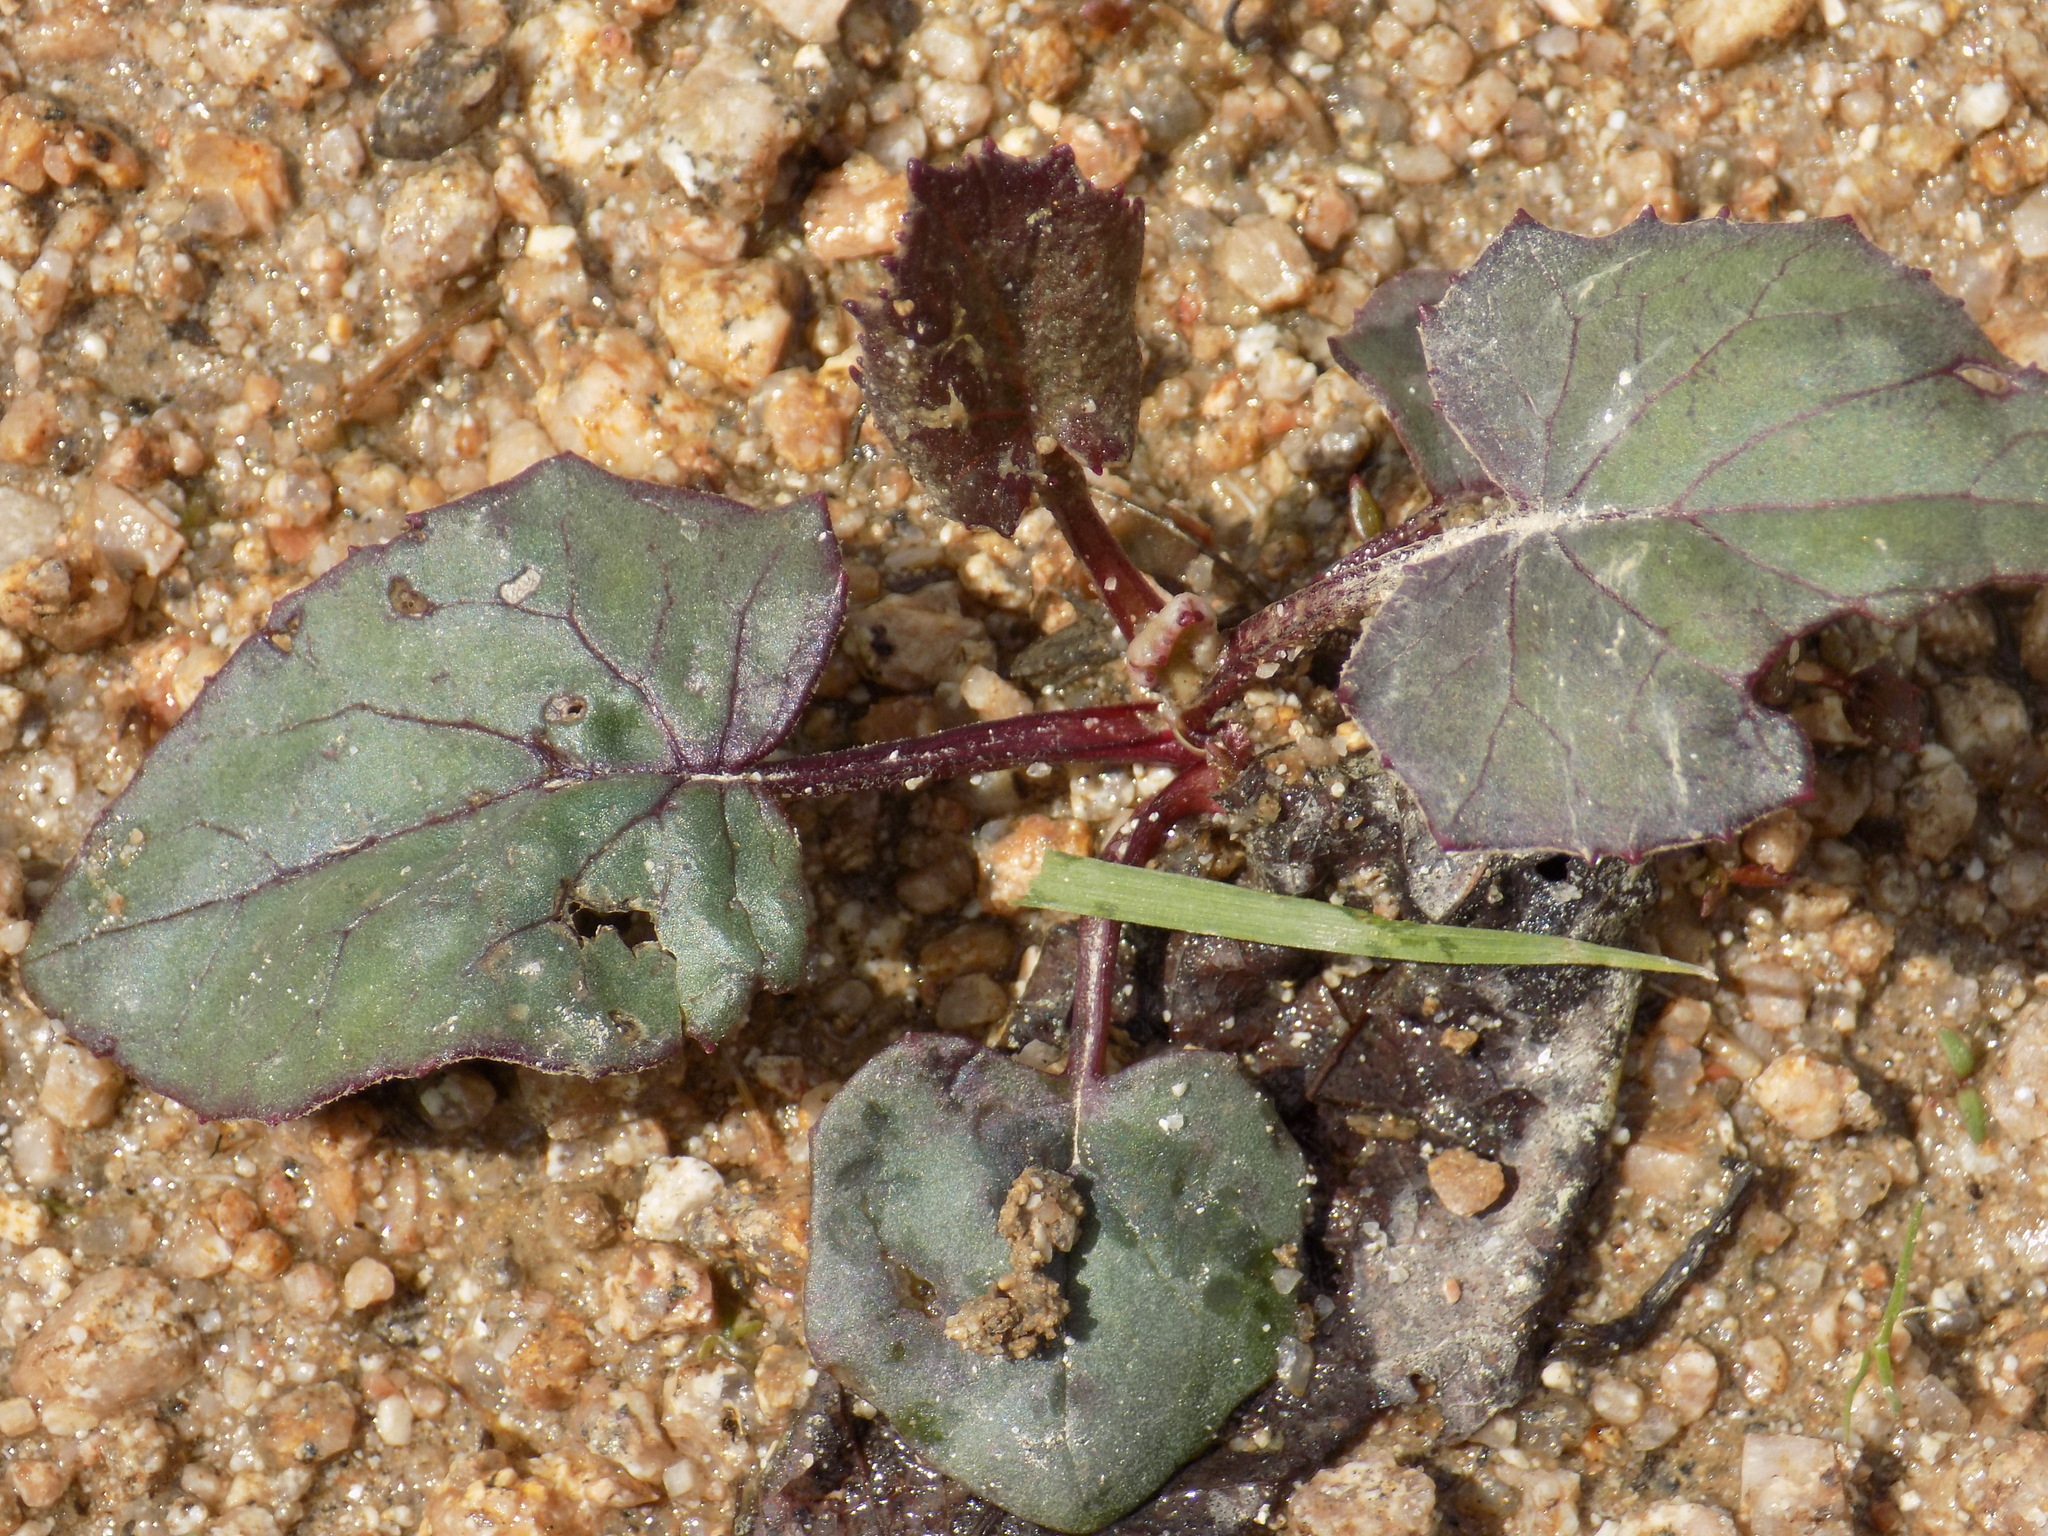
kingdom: Plantae
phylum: Tracheophyta
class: Magnoliopsida
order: Asterales
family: Asteraceae
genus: Tussilago
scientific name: Tussilago farfara
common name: Coltsfoot
